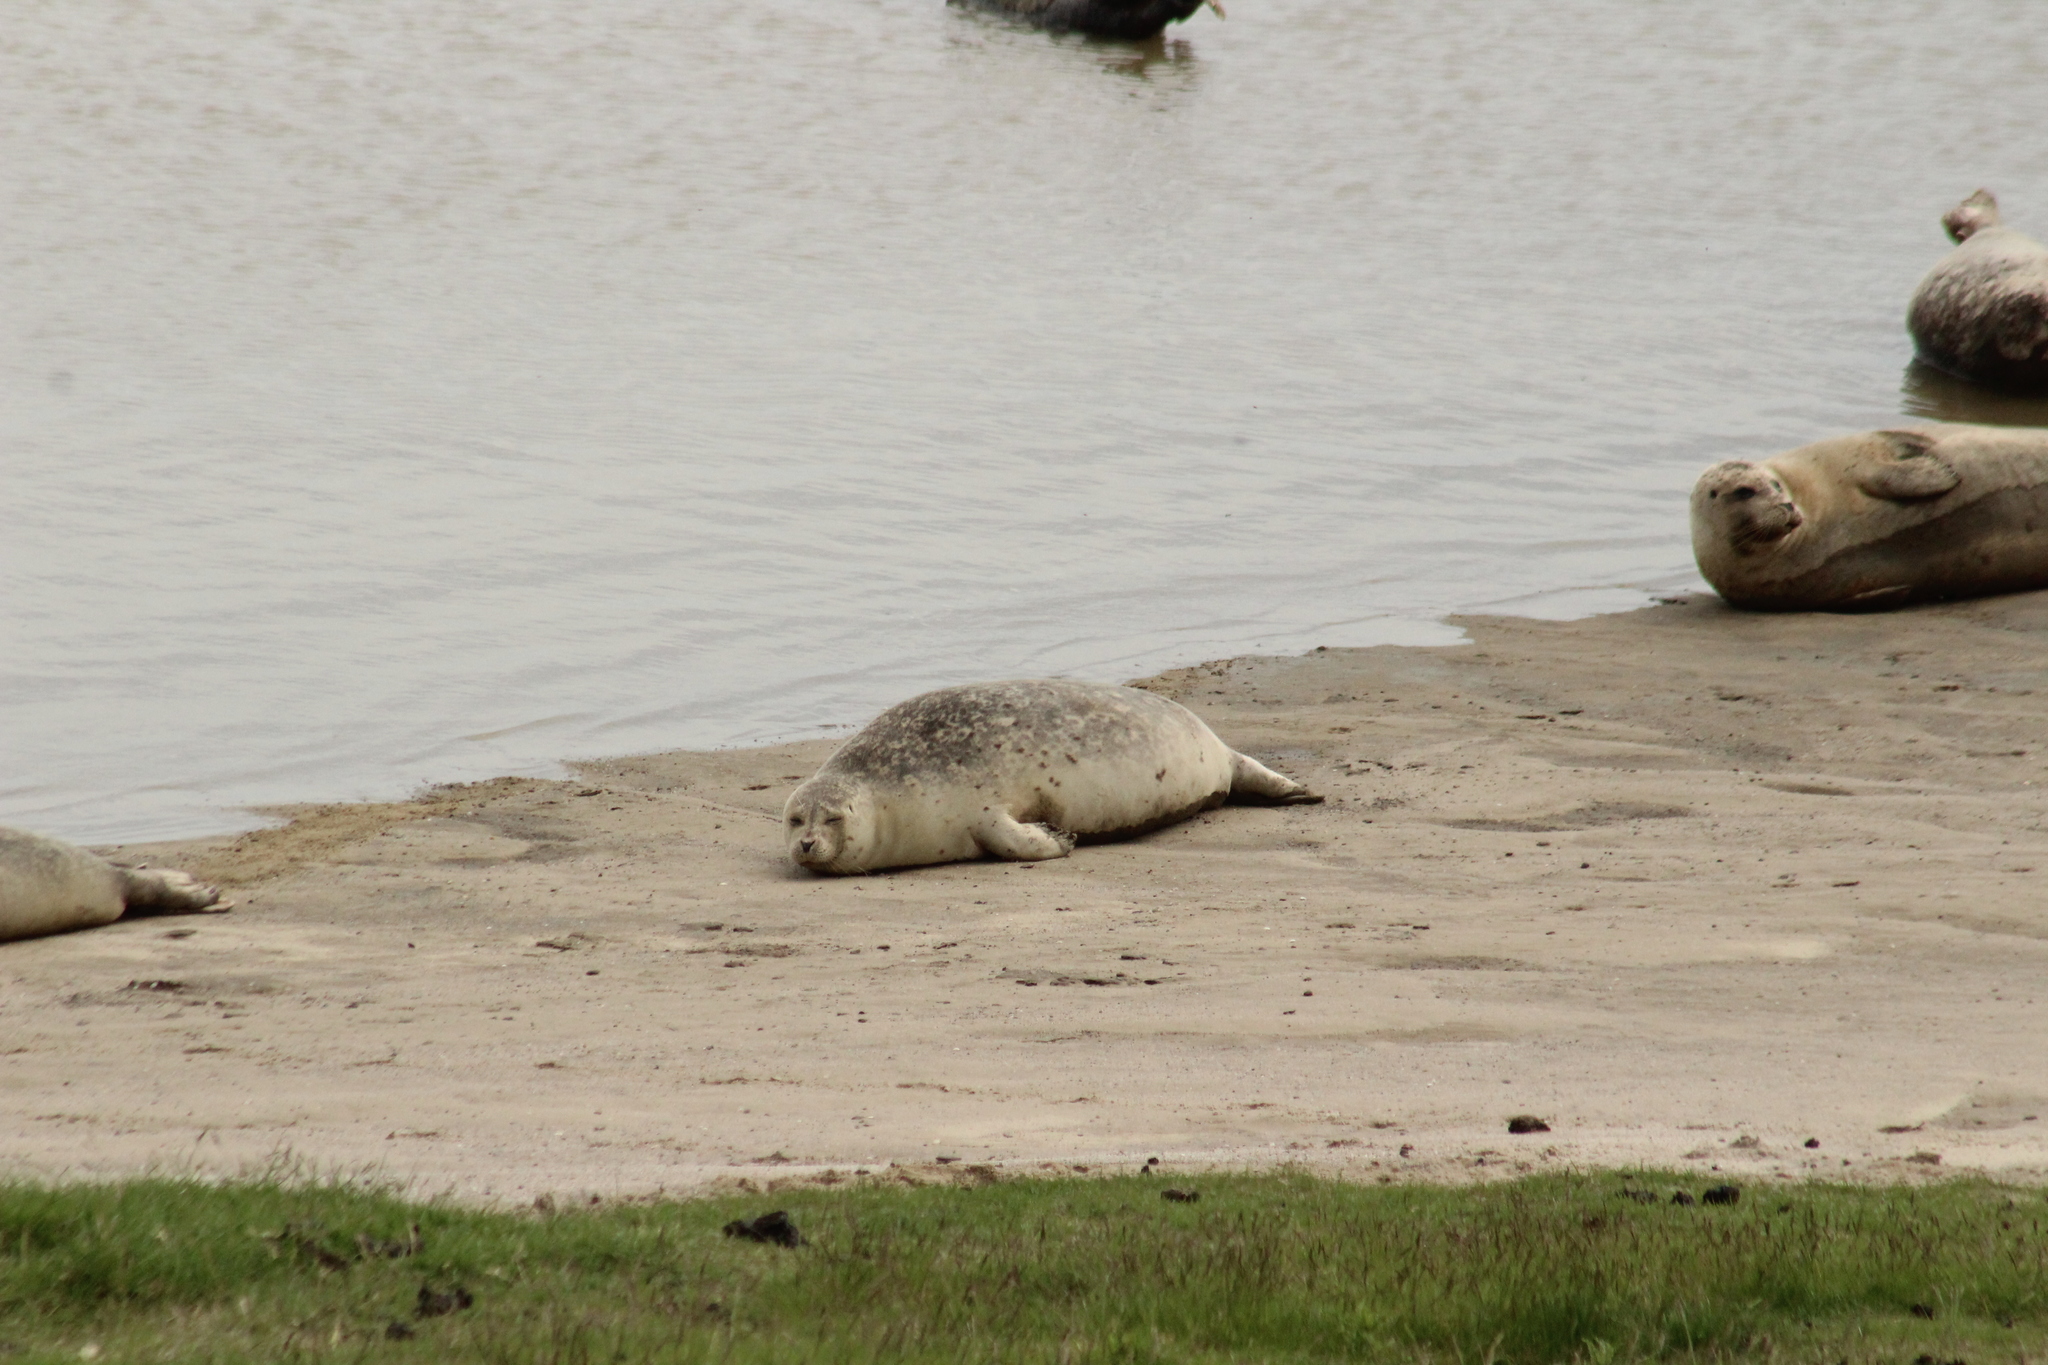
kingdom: Animalia
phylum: Chordata
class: Mammalia
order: Carnivora
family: Phocidae
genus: Phoca
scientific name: Phoca vitulina
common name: Harbor seal
